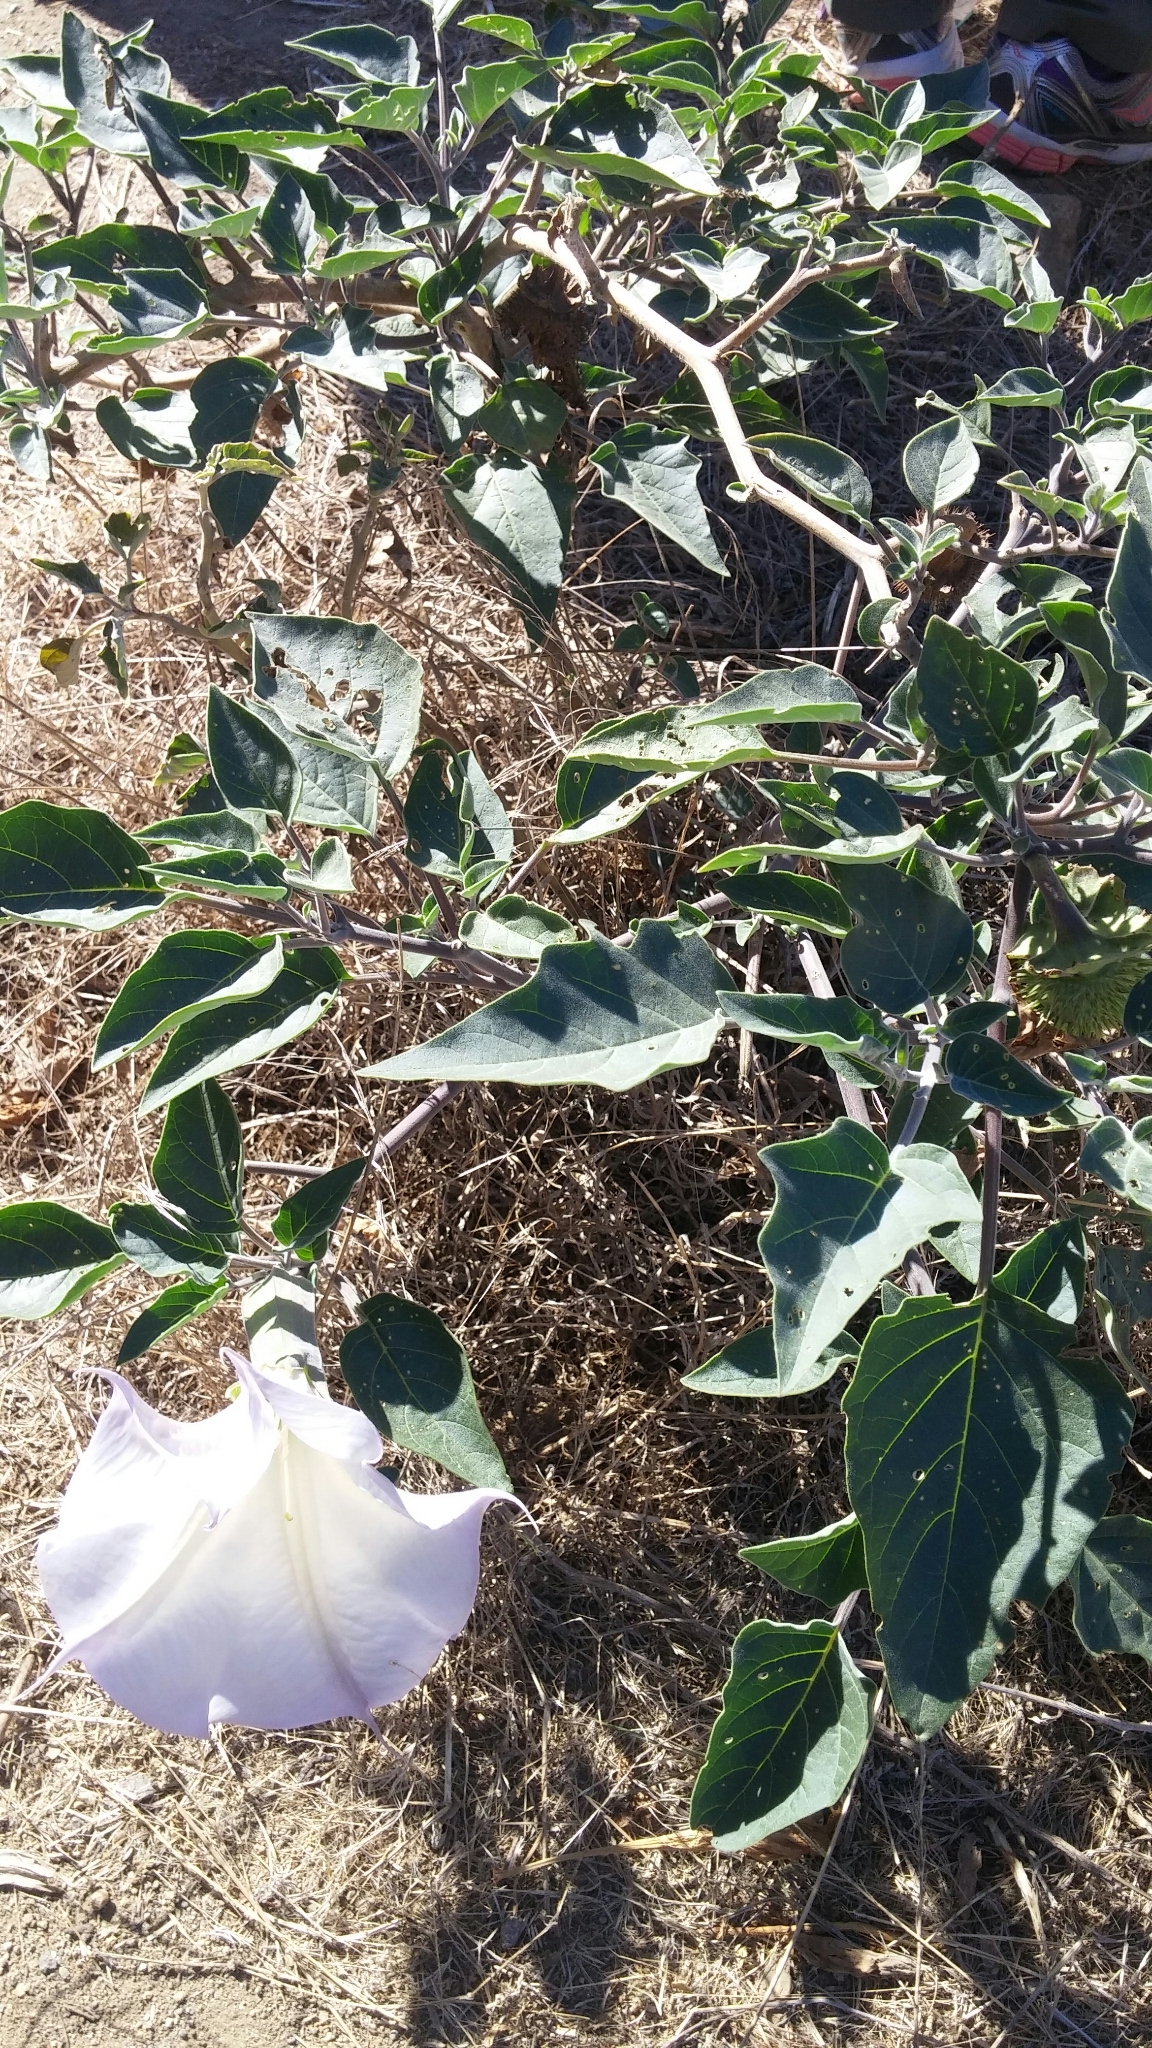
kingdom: Plantae
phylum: Tracheophyta
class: Magnoliopsida
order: Solanales
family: Solanaceae
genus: Datura
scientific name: Datura wrightii
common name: Sacred thorn-apple
